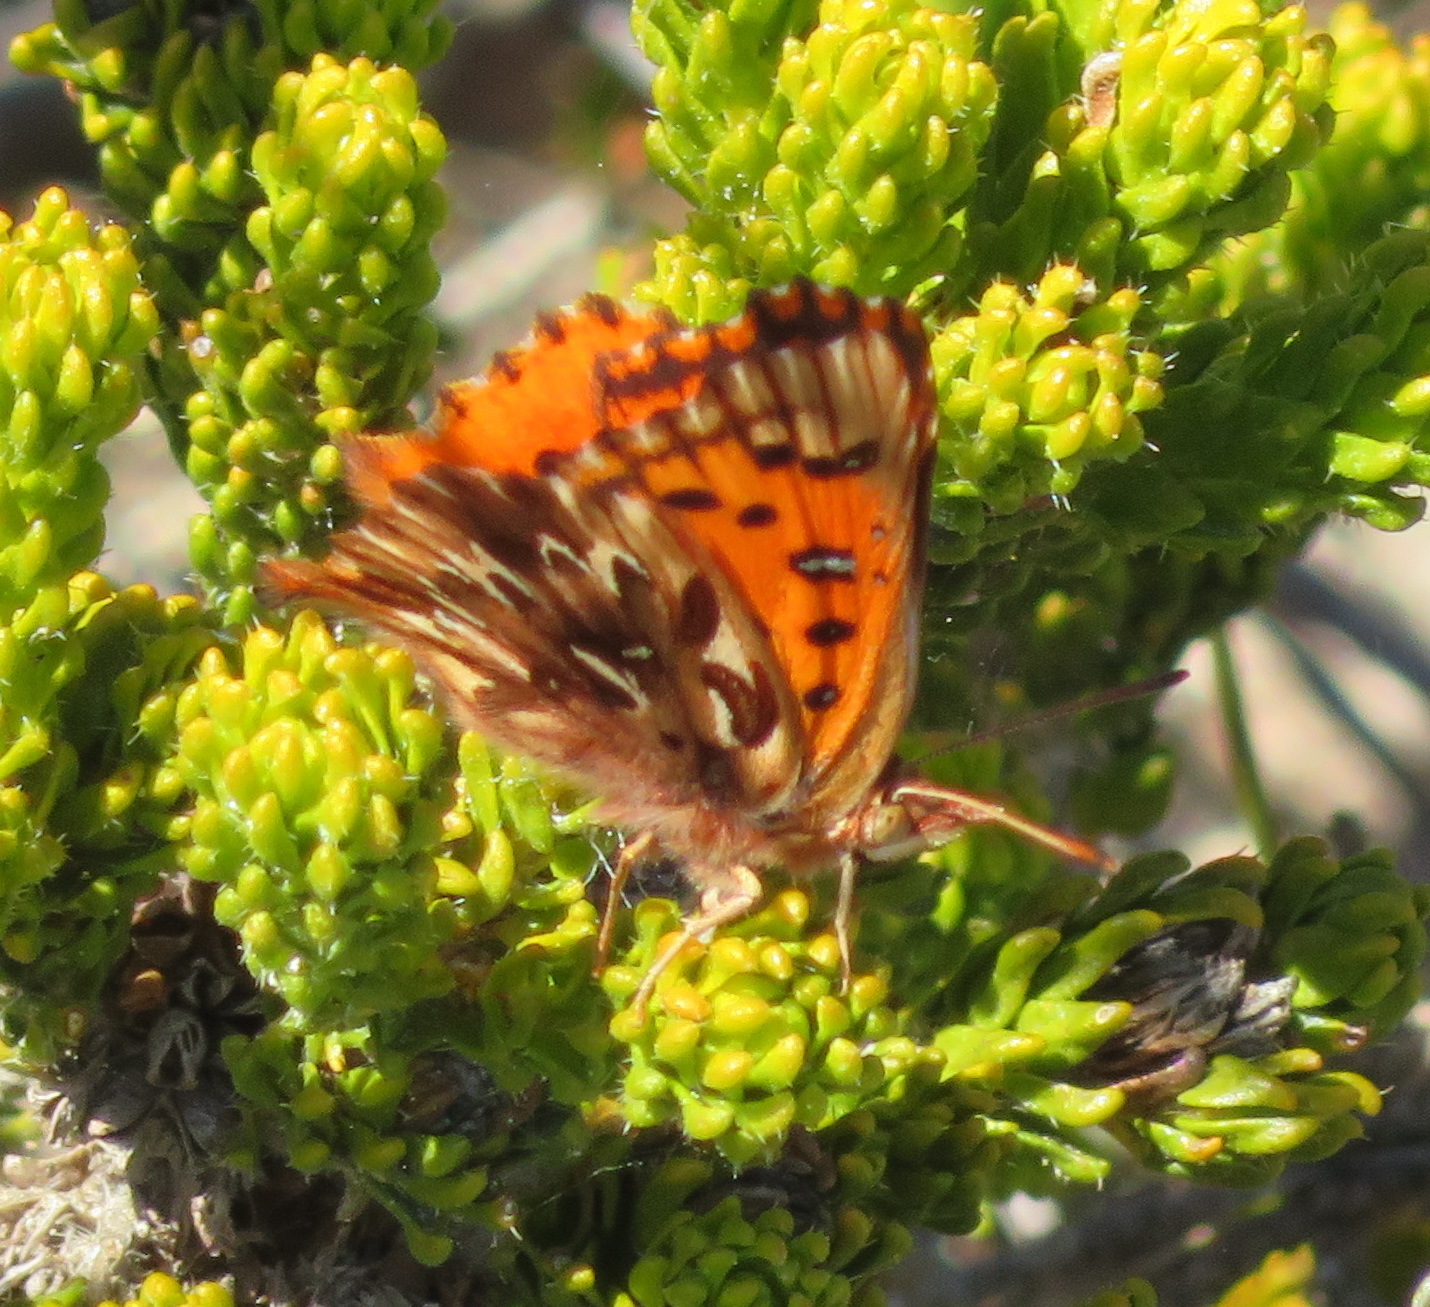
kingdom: Animalia
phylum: Arthropoda
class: Insecta
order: Lepidoptera
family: Lycaenidae
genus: Chrysoritis
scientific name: Chrysoritis
